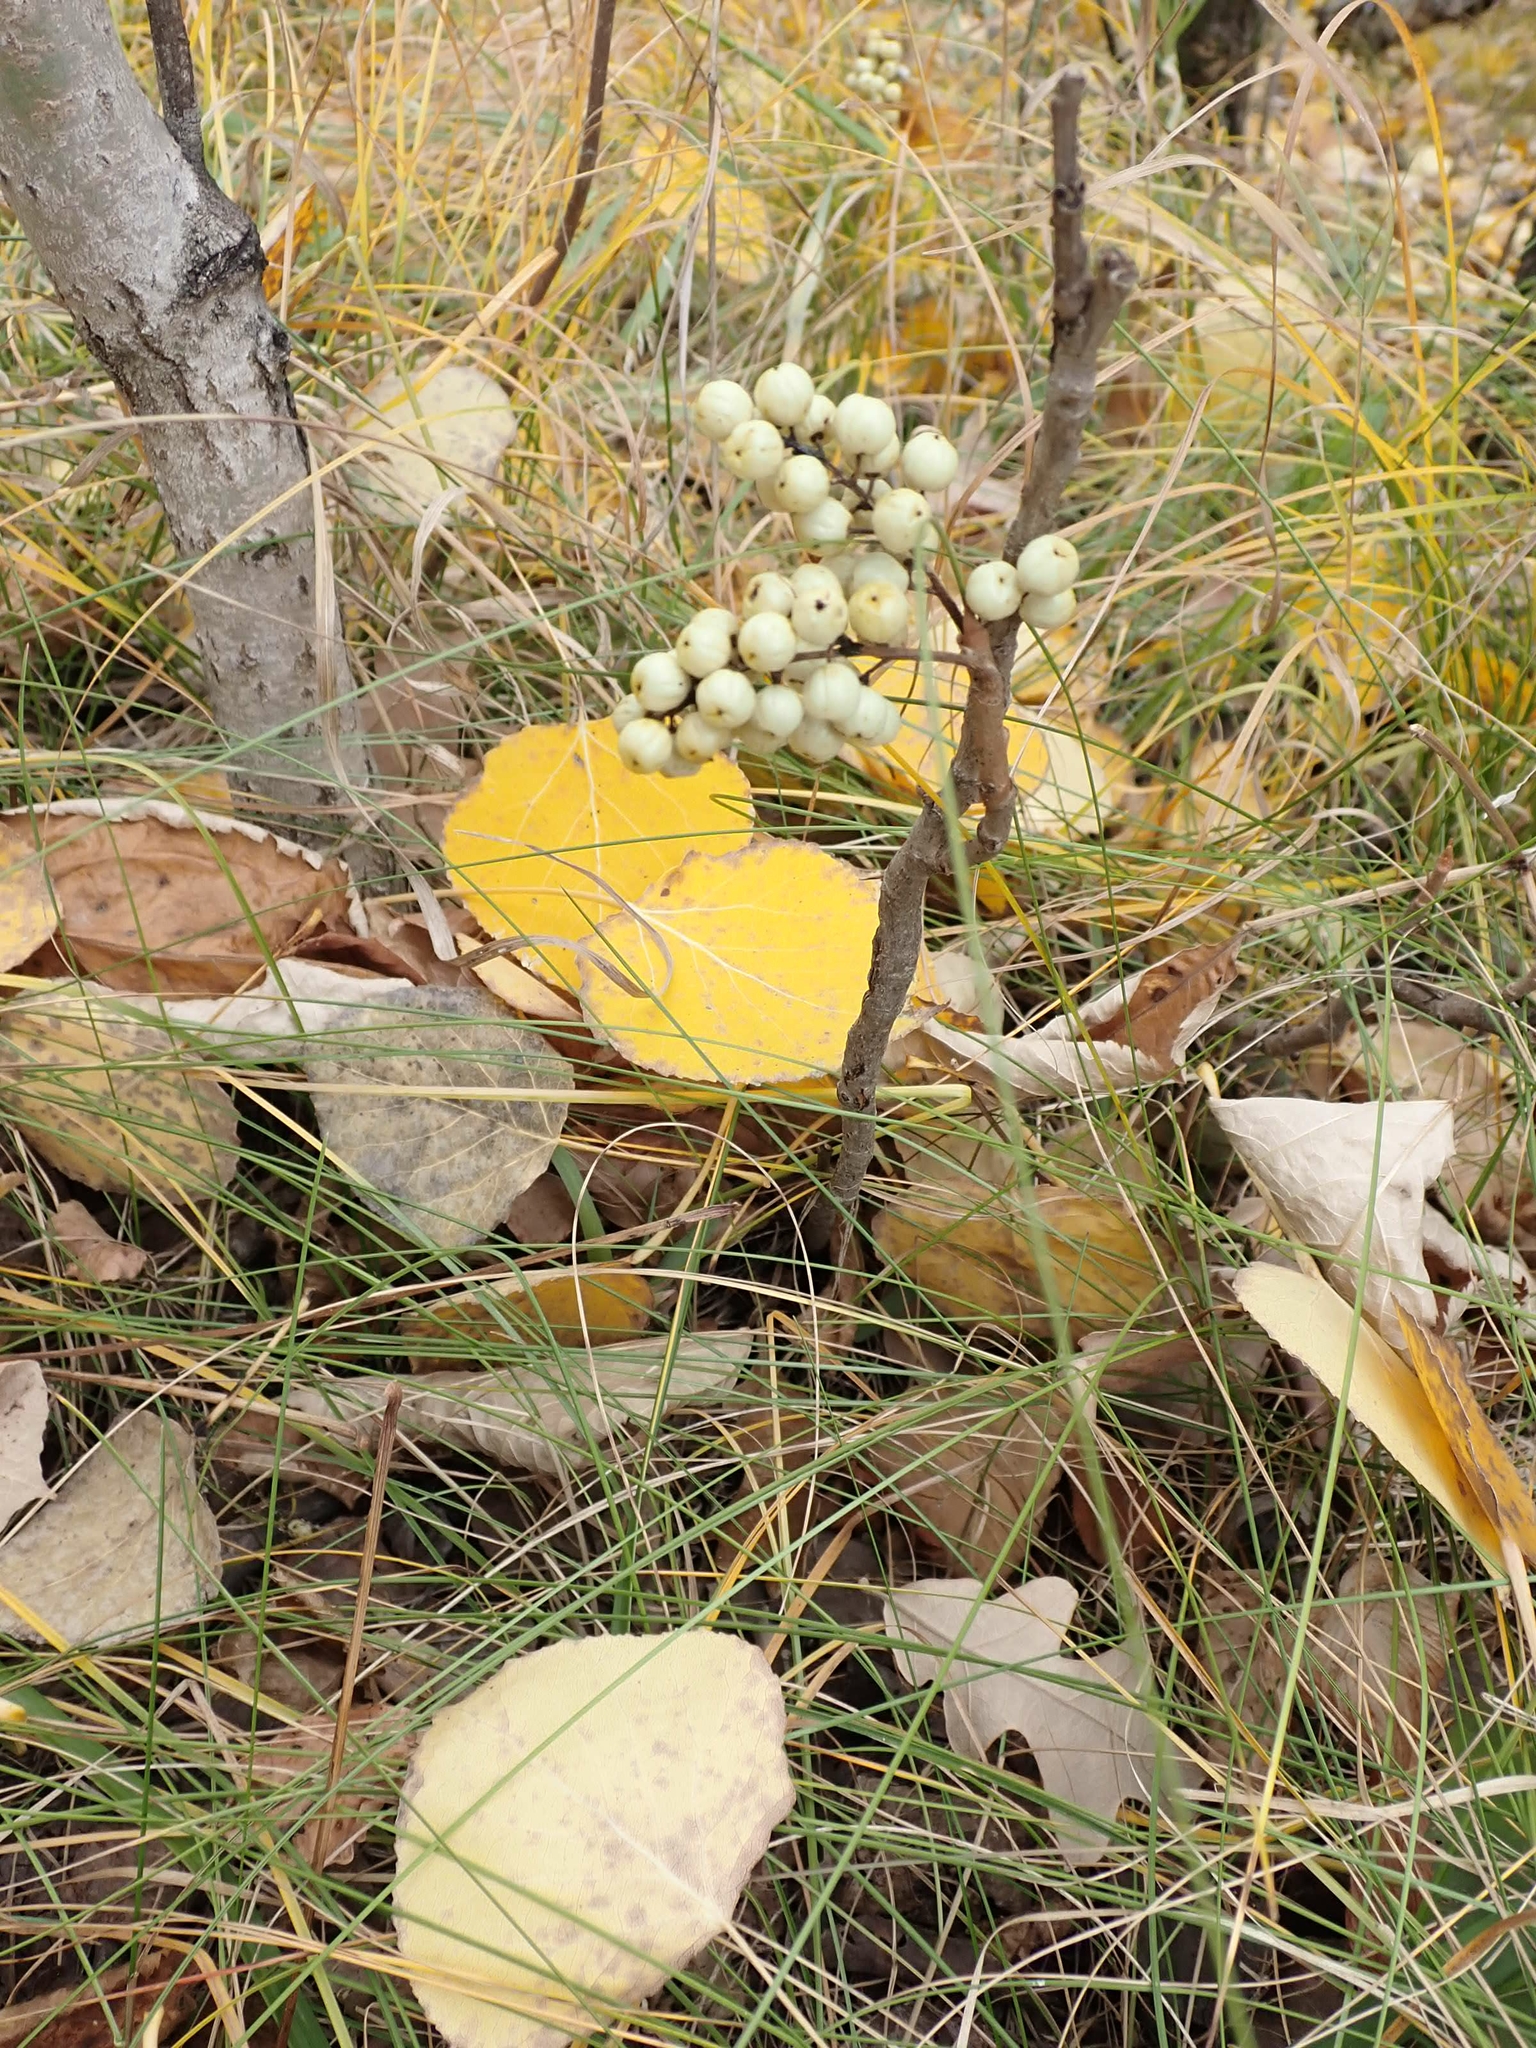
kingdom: Plantae
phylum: Tracheophyta
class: Magnoliopsida
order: Sapindales
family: Anacardiaceae
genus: Toxicodendron
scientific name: Toxicodendron rydbergii
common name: Rydberg's poison-ivy
